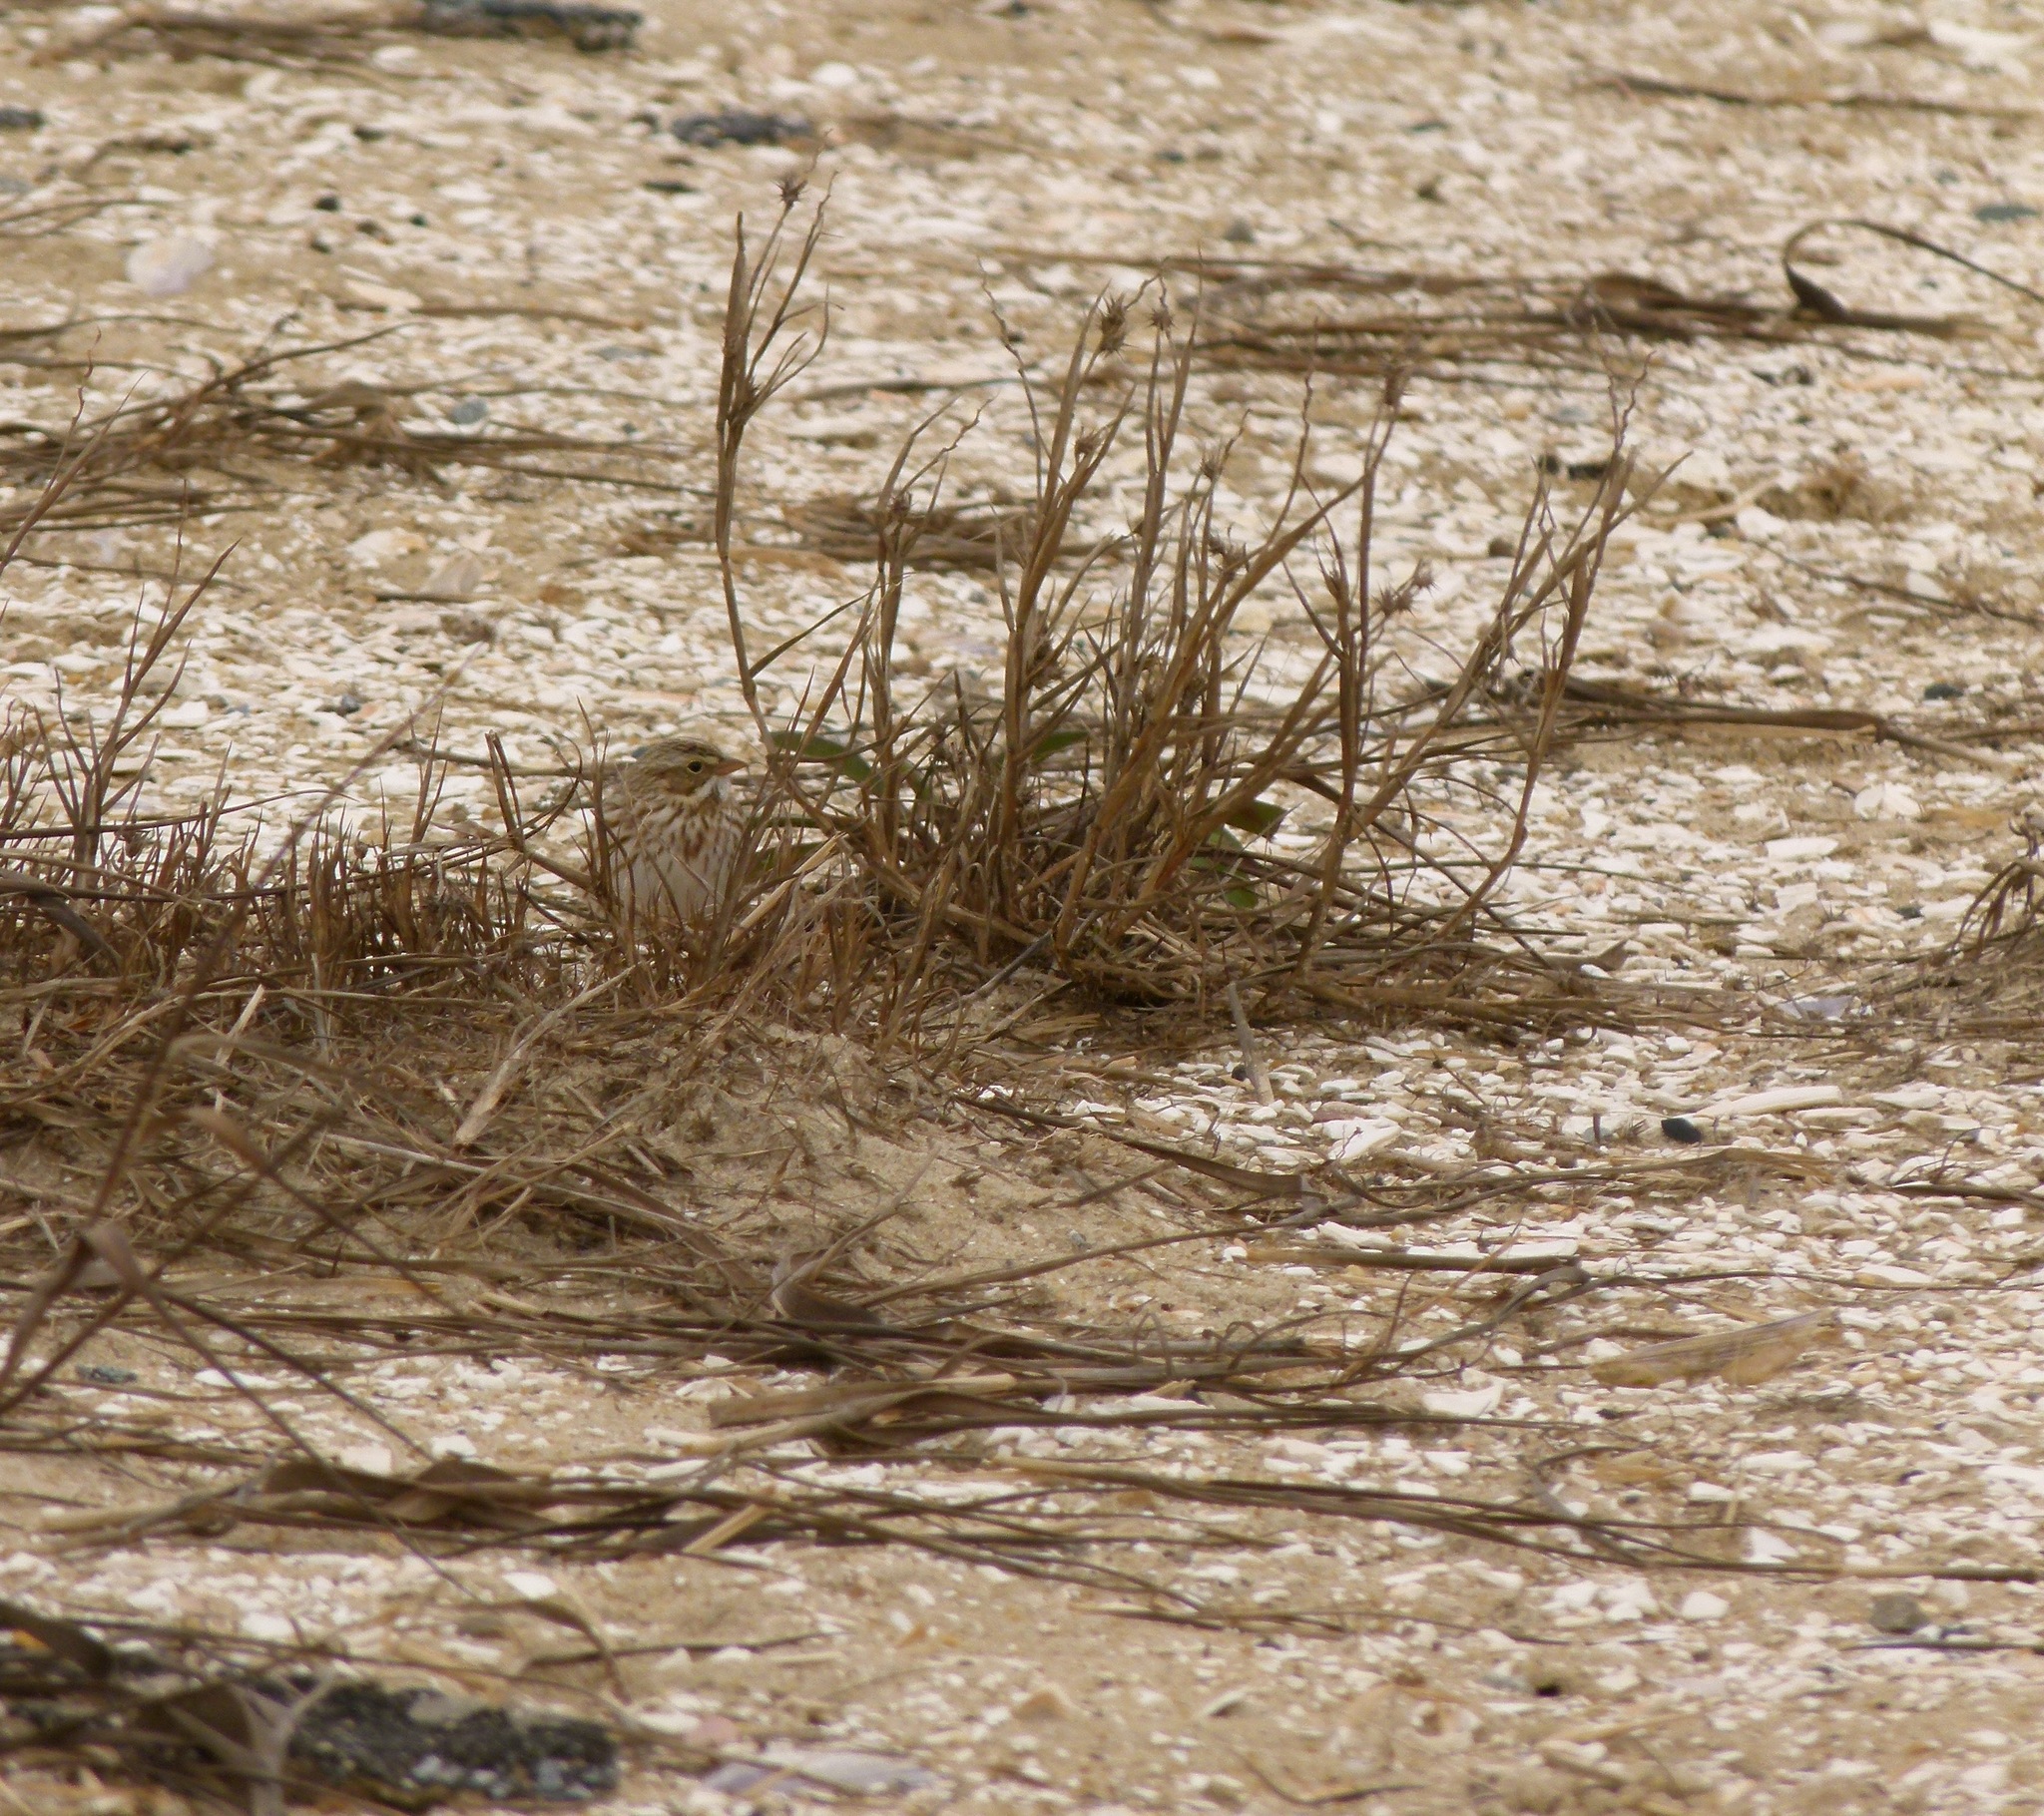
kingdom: Animalia
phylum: Chordata
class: Aves
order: Passeriformes
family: Passerellidae
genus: Passerculus
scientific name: Passerculus sandwichensis
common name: Savannah sparrow
